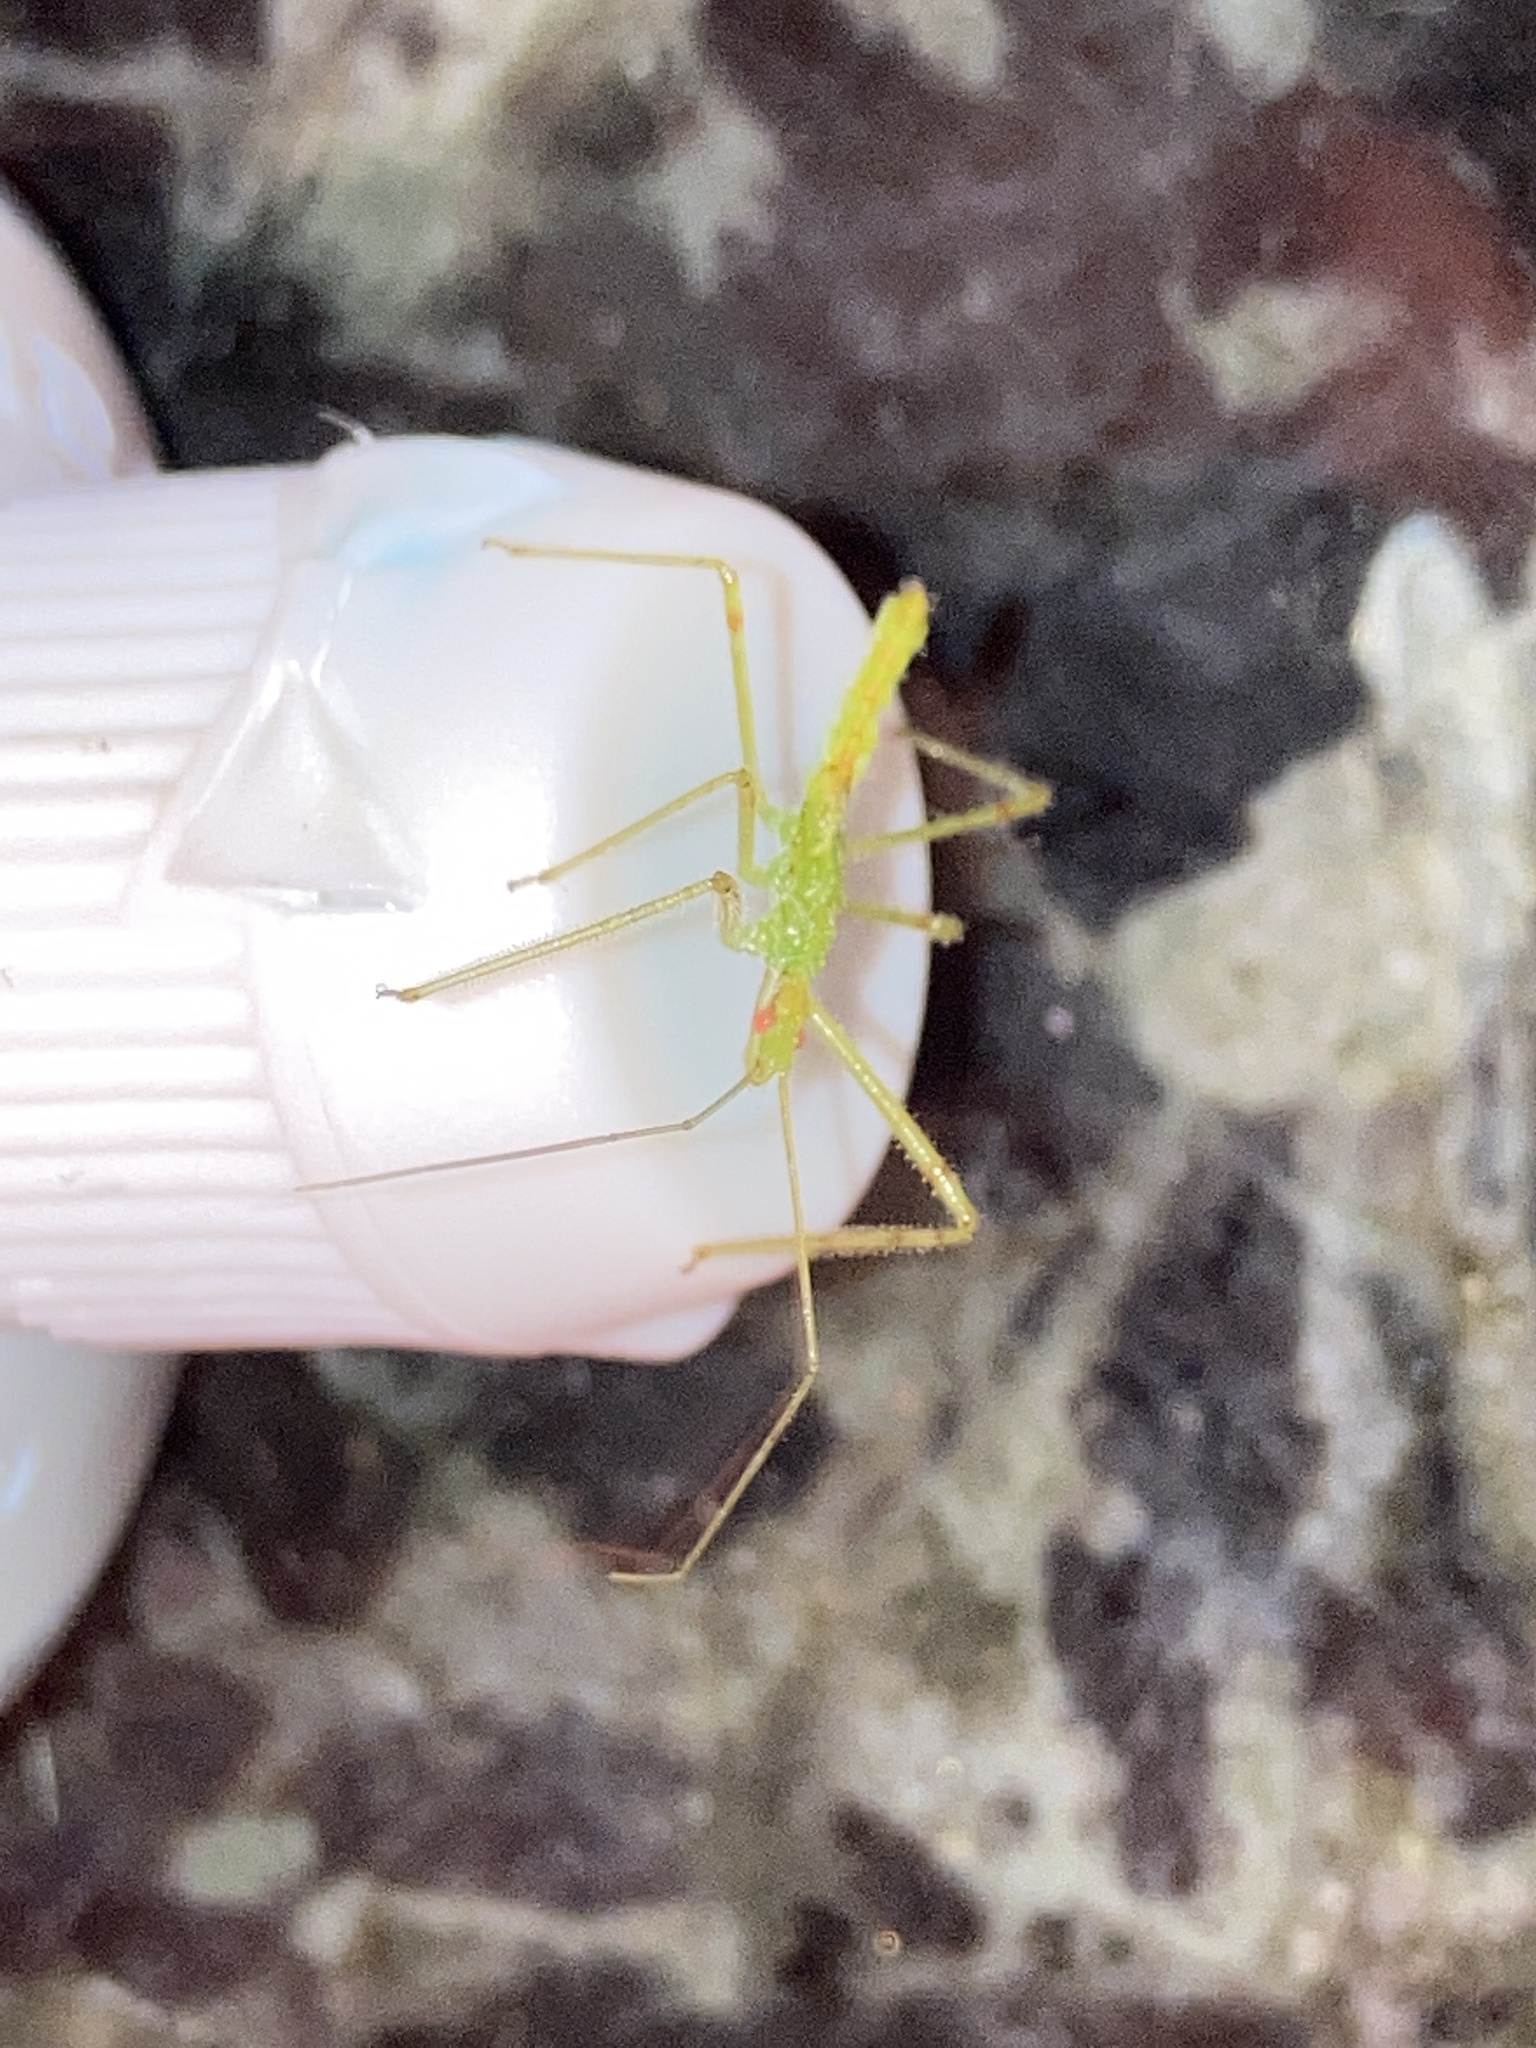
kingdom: Animalia
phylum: Arthropoda
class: Insecta
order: Hemiptera
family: Reduviidae
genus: Zelus
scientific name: Zelus luridus
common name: Pale green assassin bug
